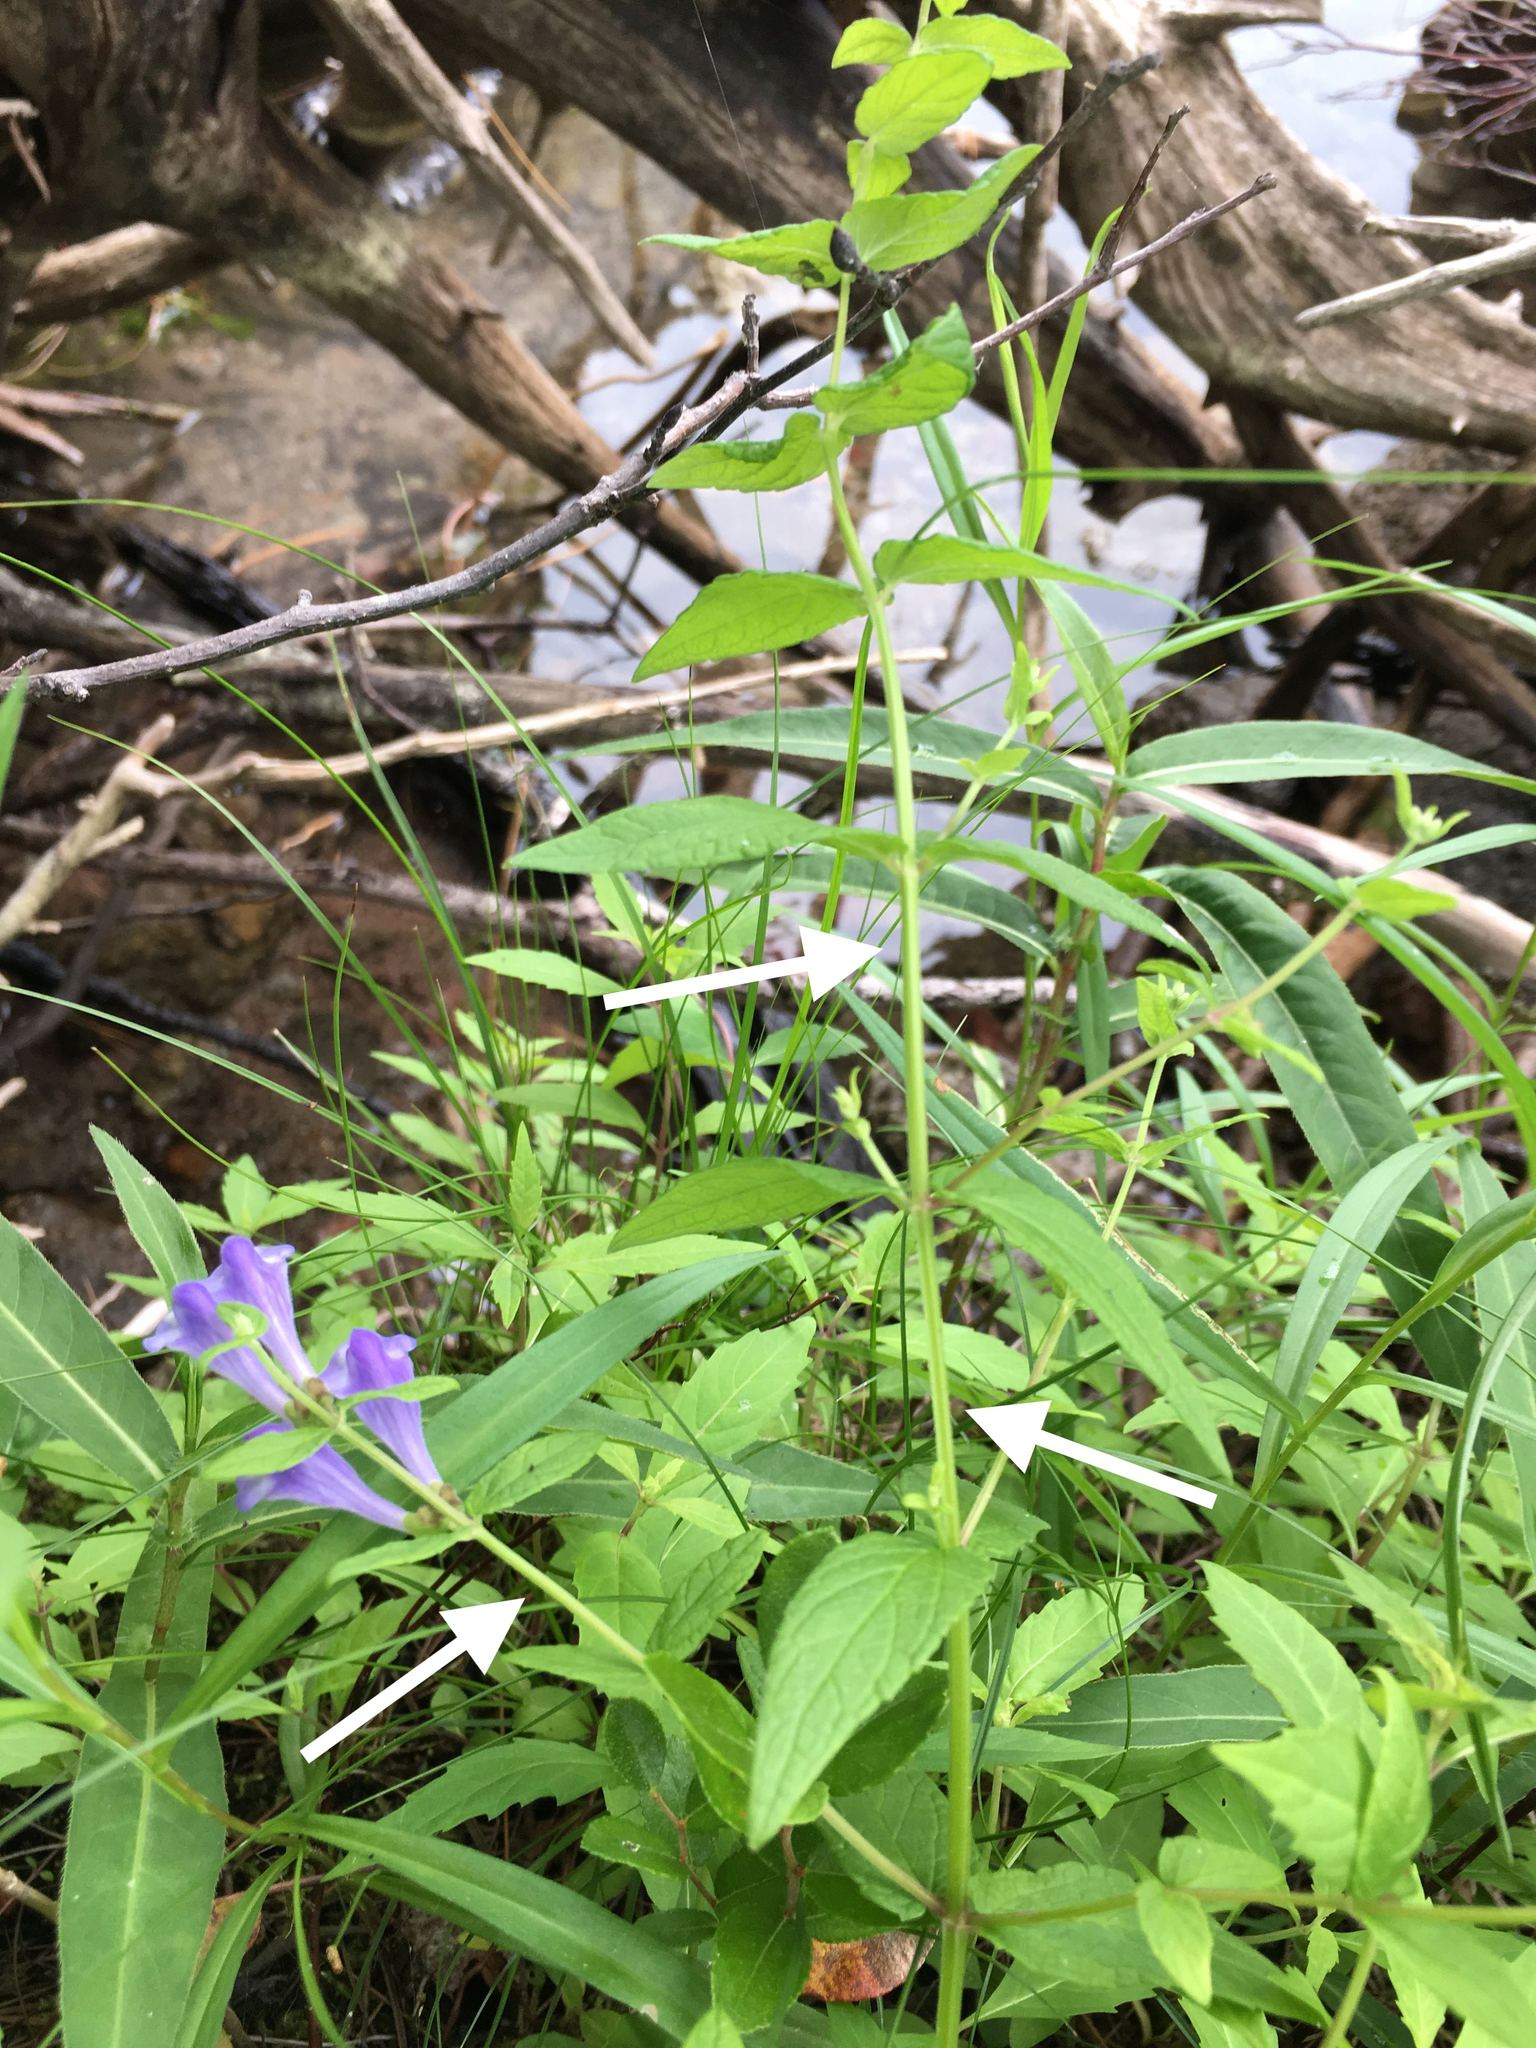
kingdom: Plantae
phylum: Tracheophyta
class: Magnoliopsida
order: Lamiales
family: Lamiaceae
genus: Scutellaria
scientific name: Scutellaria galericulata
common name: Skullcap
